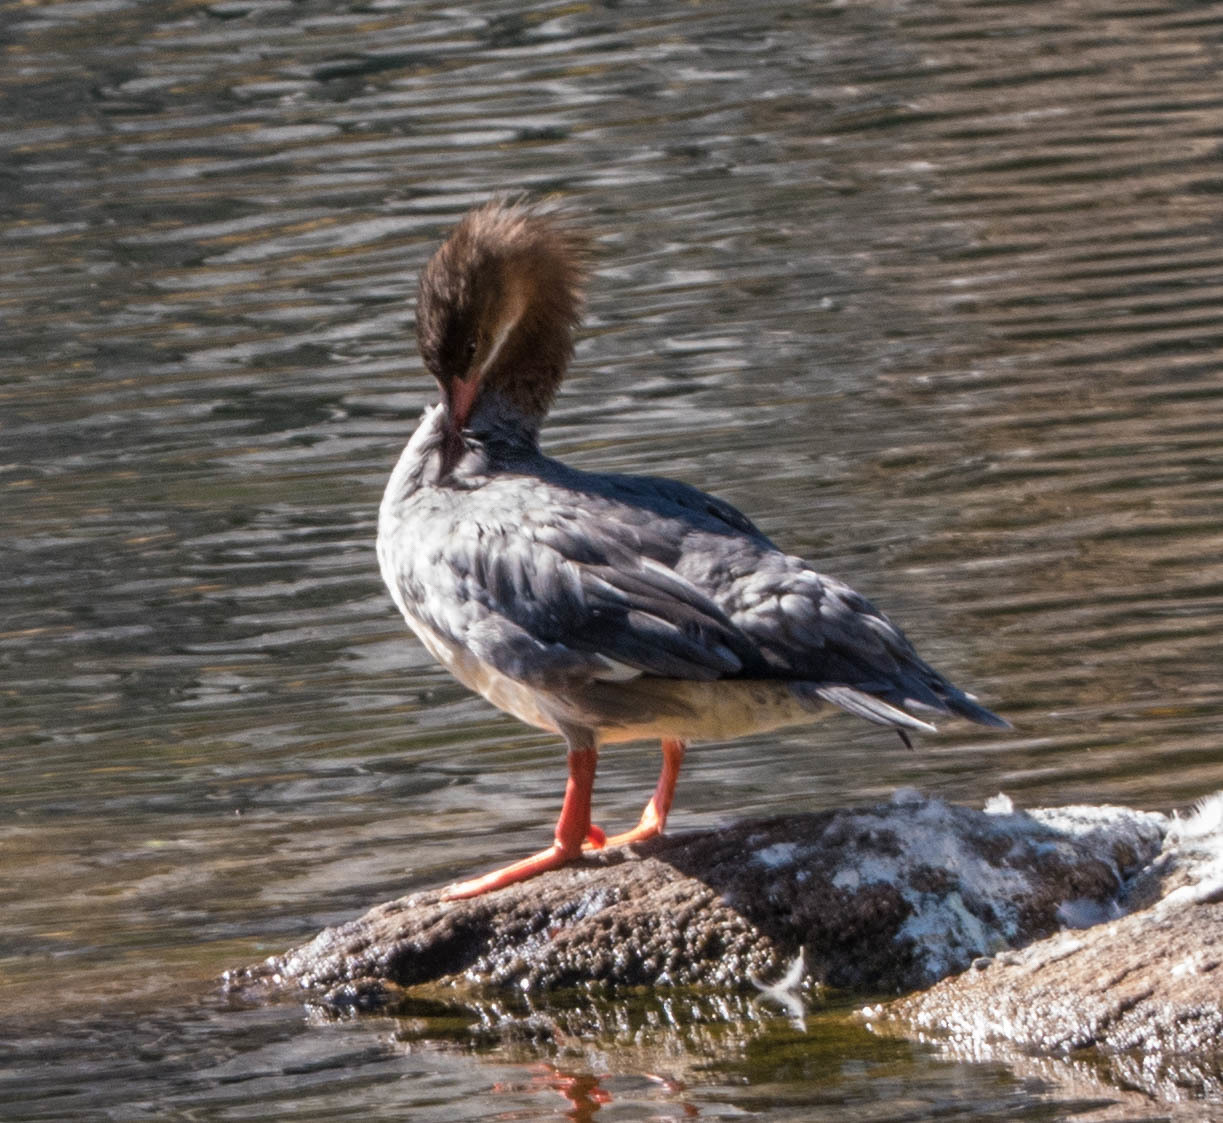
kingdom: Animalia
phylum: Chordata
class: Aves
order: Anseriformes
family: Anatidae
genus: Mergus
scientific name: Mergus merganser
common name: Common merganser
